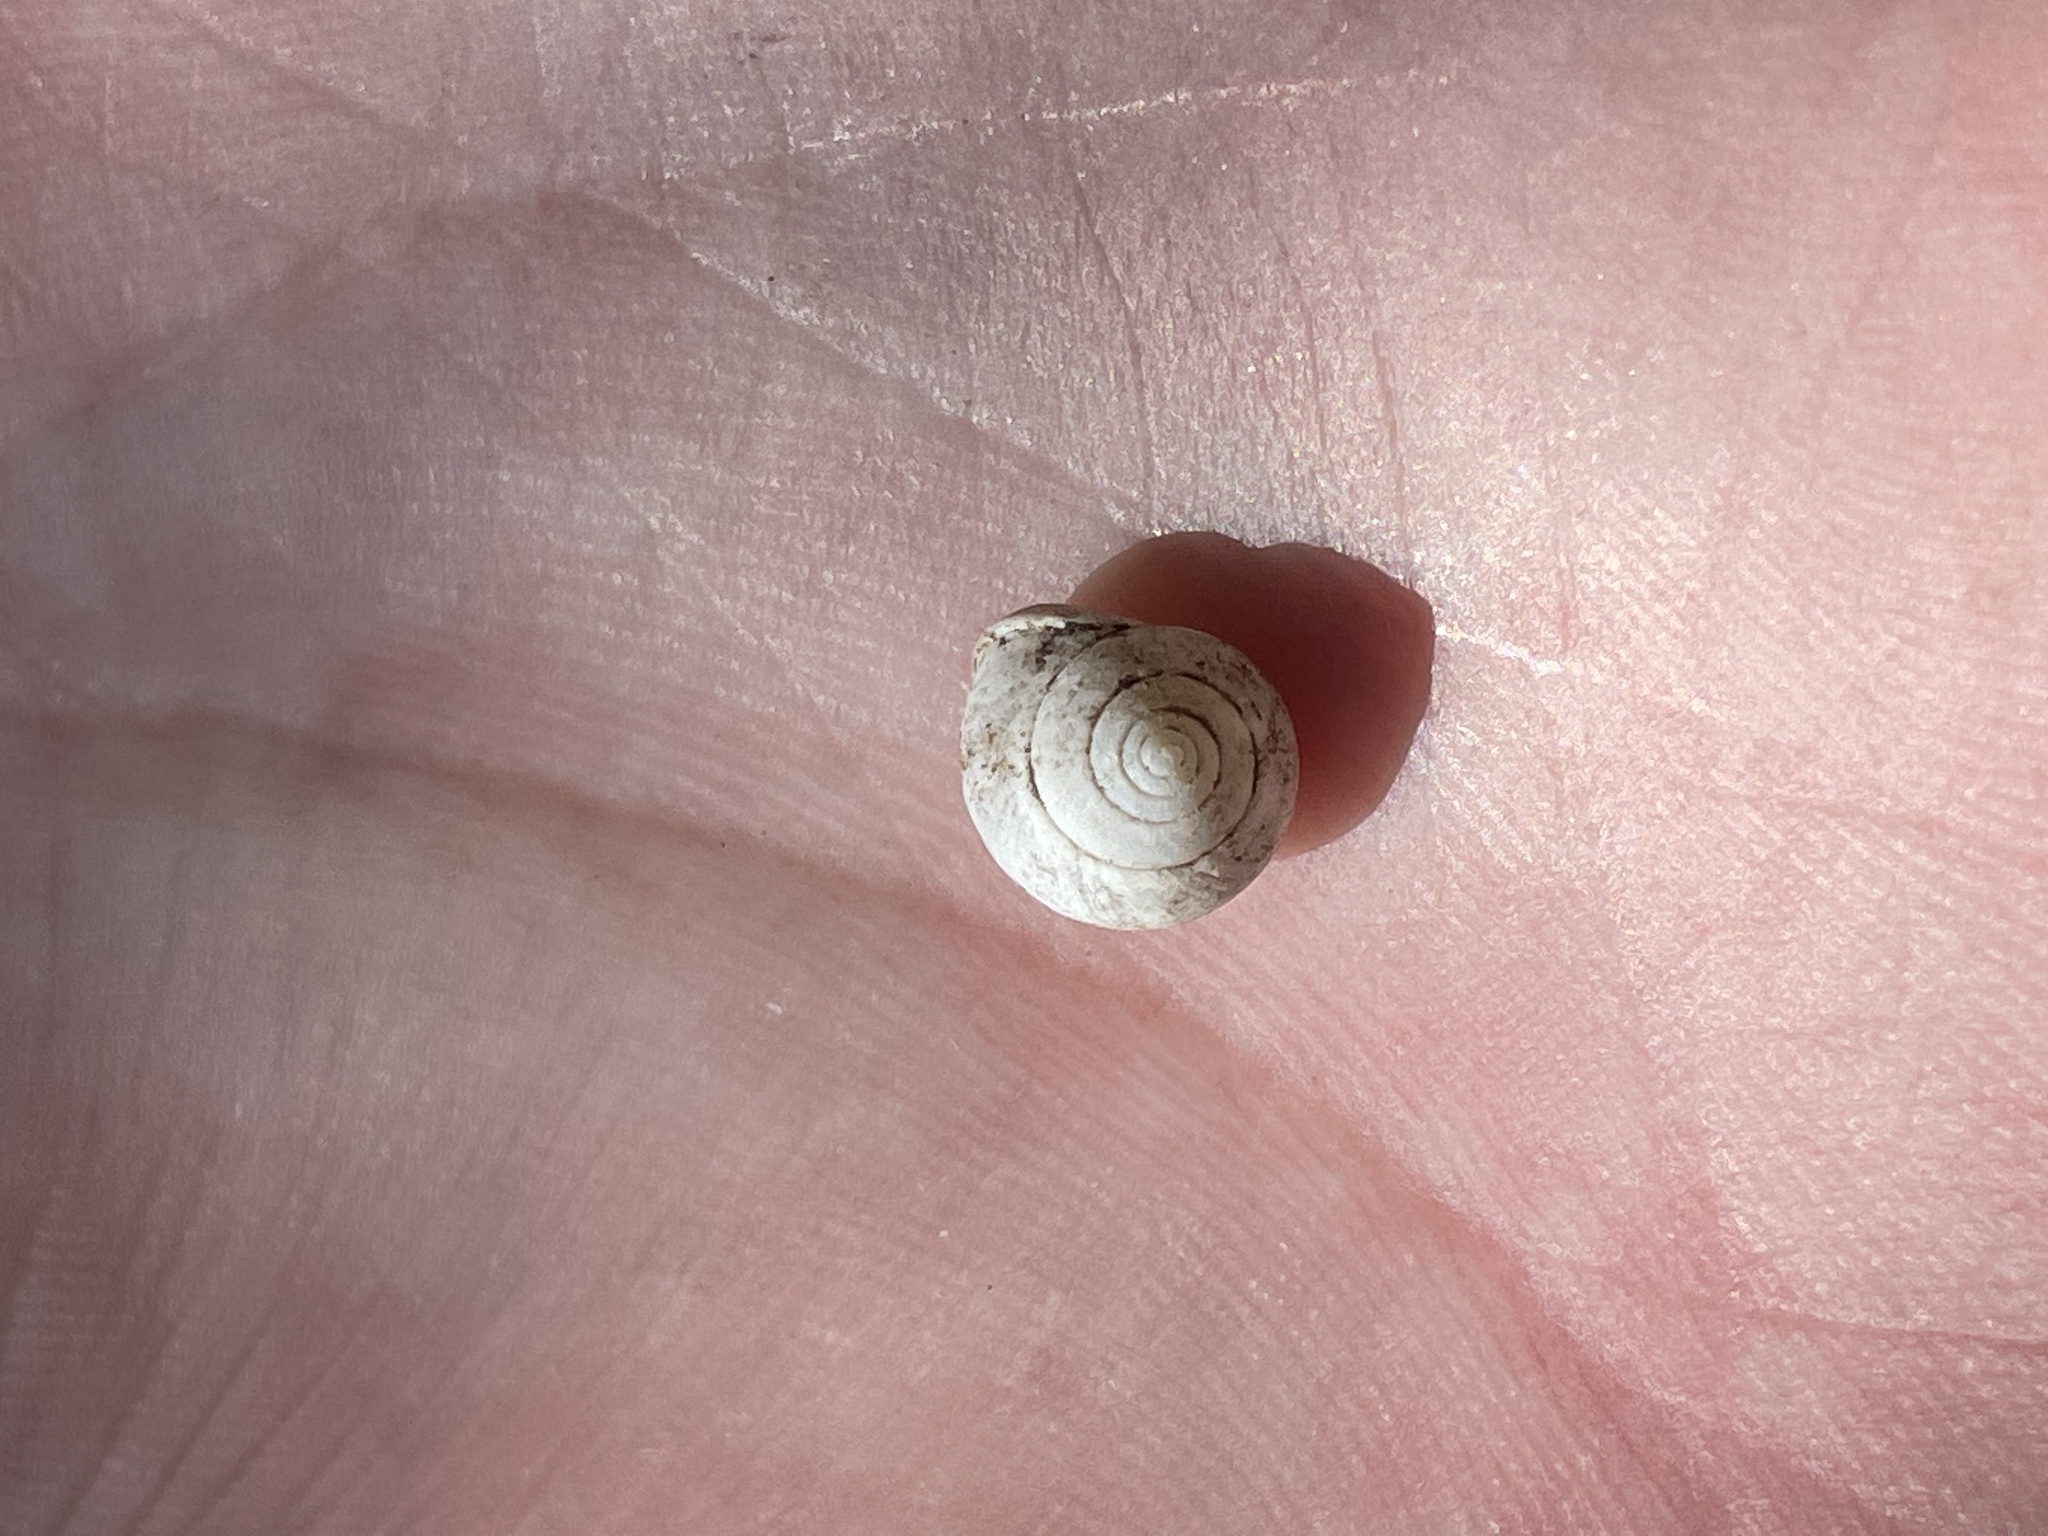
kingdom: Animalia
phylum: Mollusca
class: Gastropoda
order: Cycloneritida
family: Helicinidae
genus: Helicina
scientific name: Helicina orbiculata
